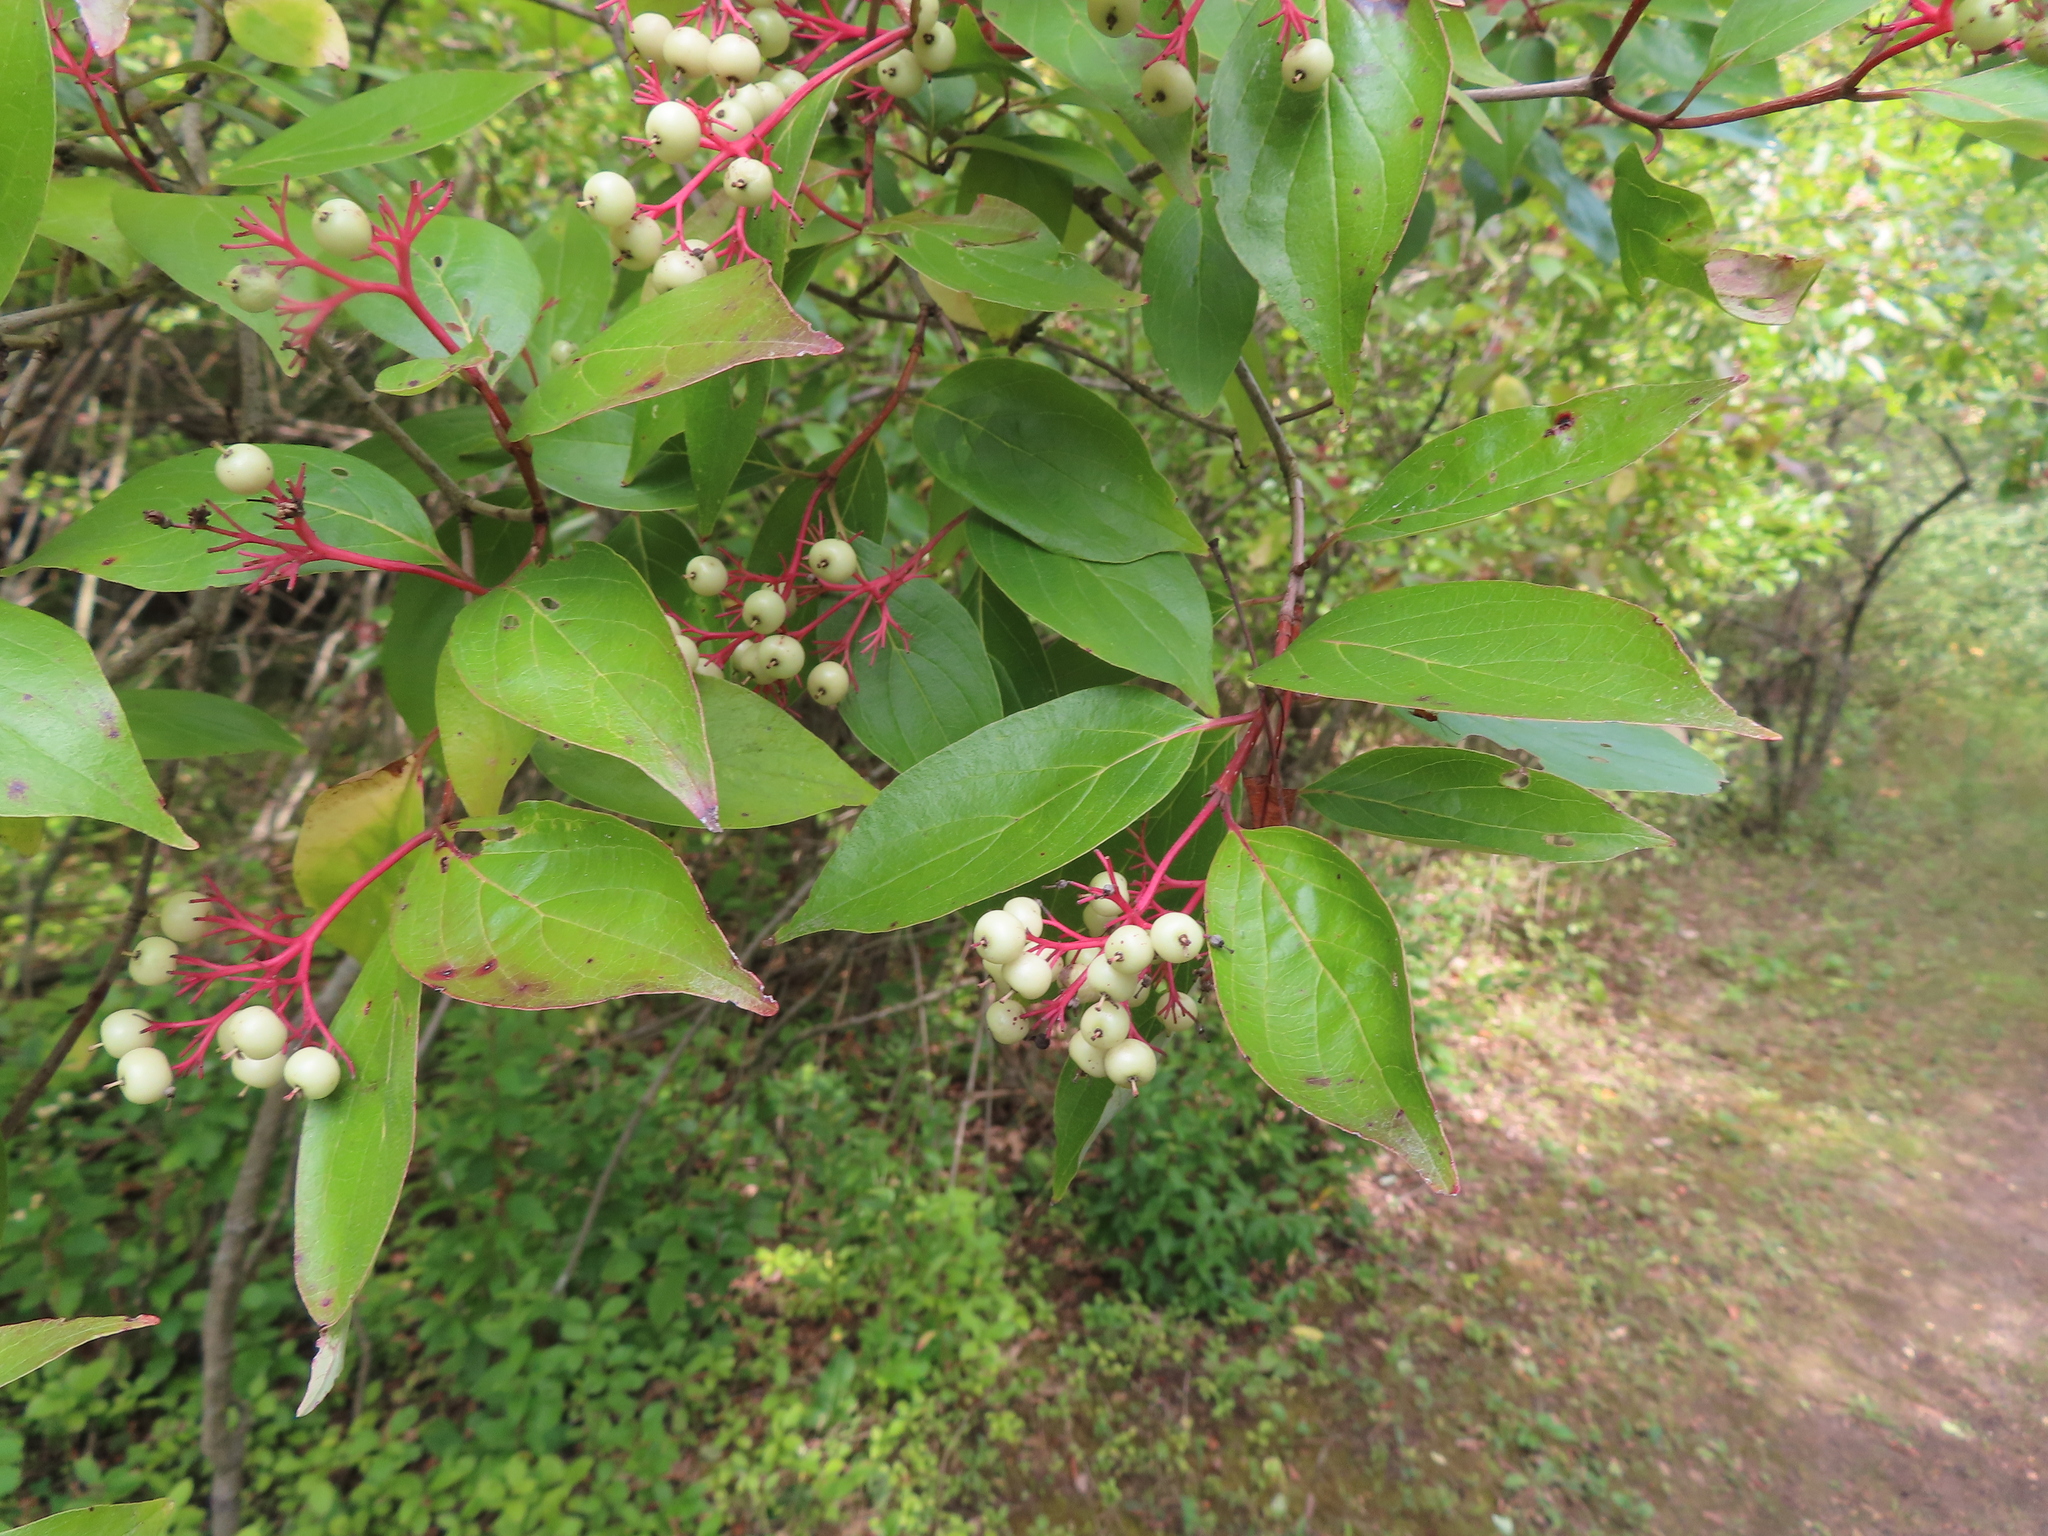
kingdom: Plantae
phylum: Tracheophyta
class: Magnoliopsida
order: Cornales
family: Cornaceae
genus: Cornus
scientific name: Cornus racemosa
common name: Panicled dogwood
